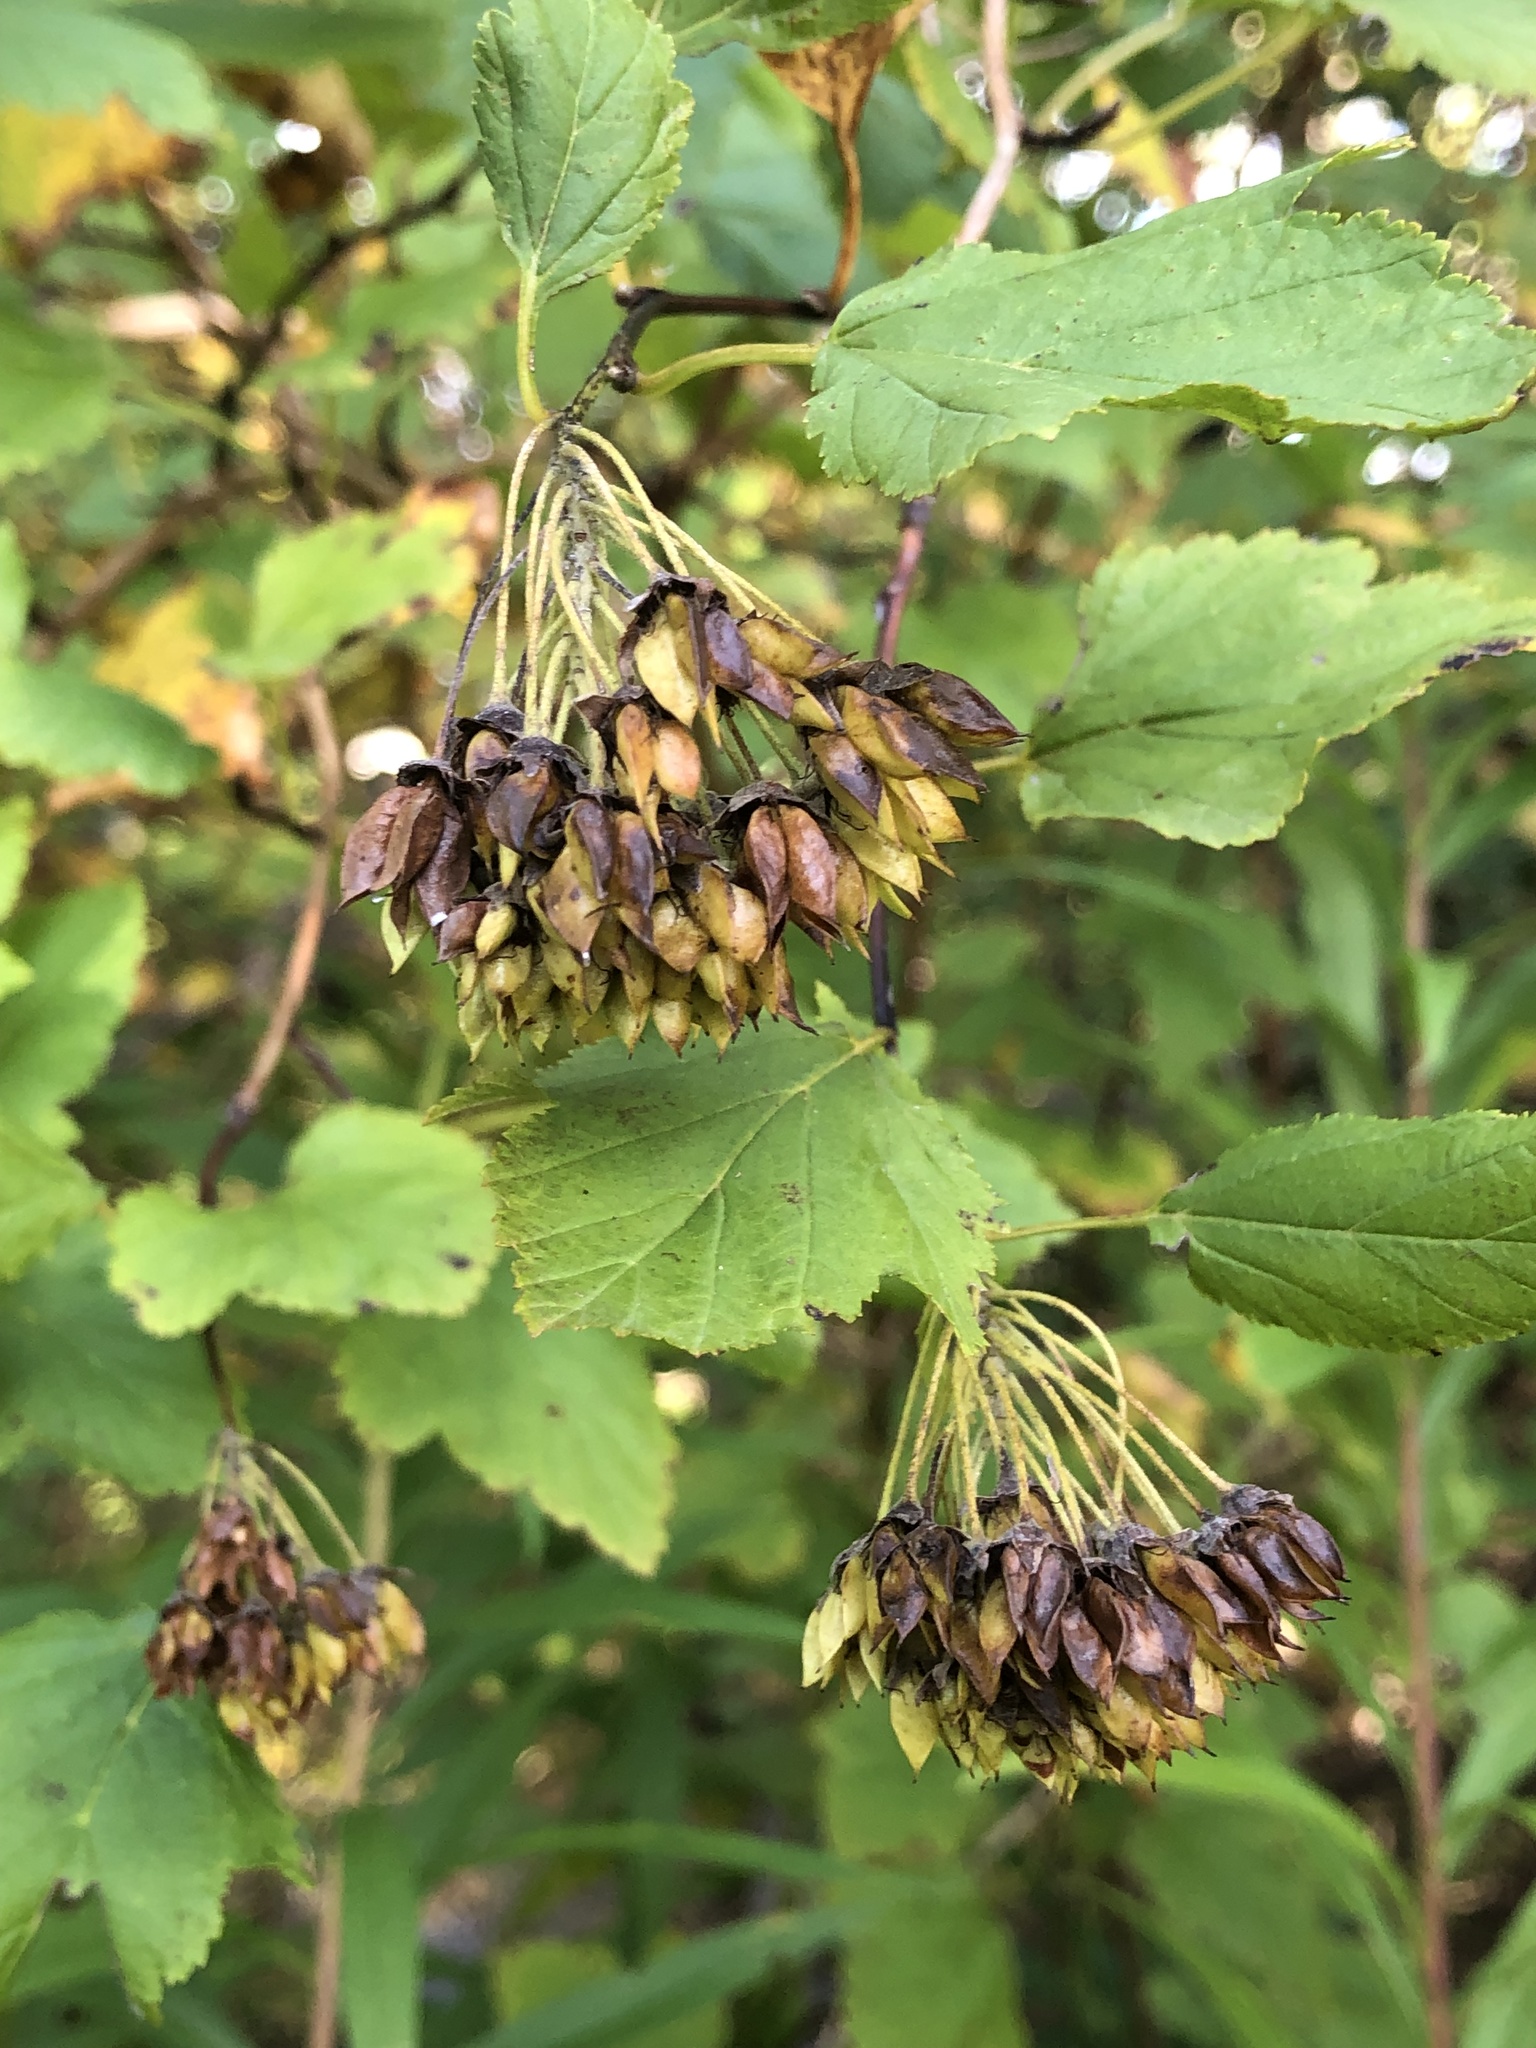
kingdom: Plantae
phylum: Tracheophyta
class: Magnoliopsida
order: Rosales
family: Rosaceae
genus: Physocarpus
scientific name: Physocarpus opulifolius
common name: Ninebark
